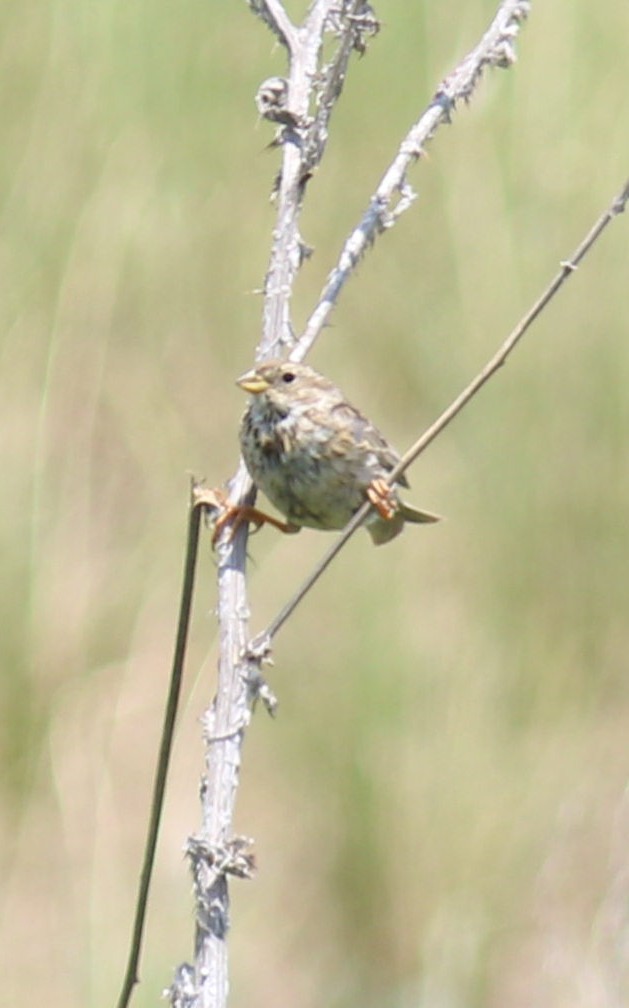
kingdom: Animalia
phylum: Chordata
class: Aves
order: Passeriformes
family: Emberizidae
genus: Emberiza
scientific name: Emberiza calandra
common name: Corn bunting
